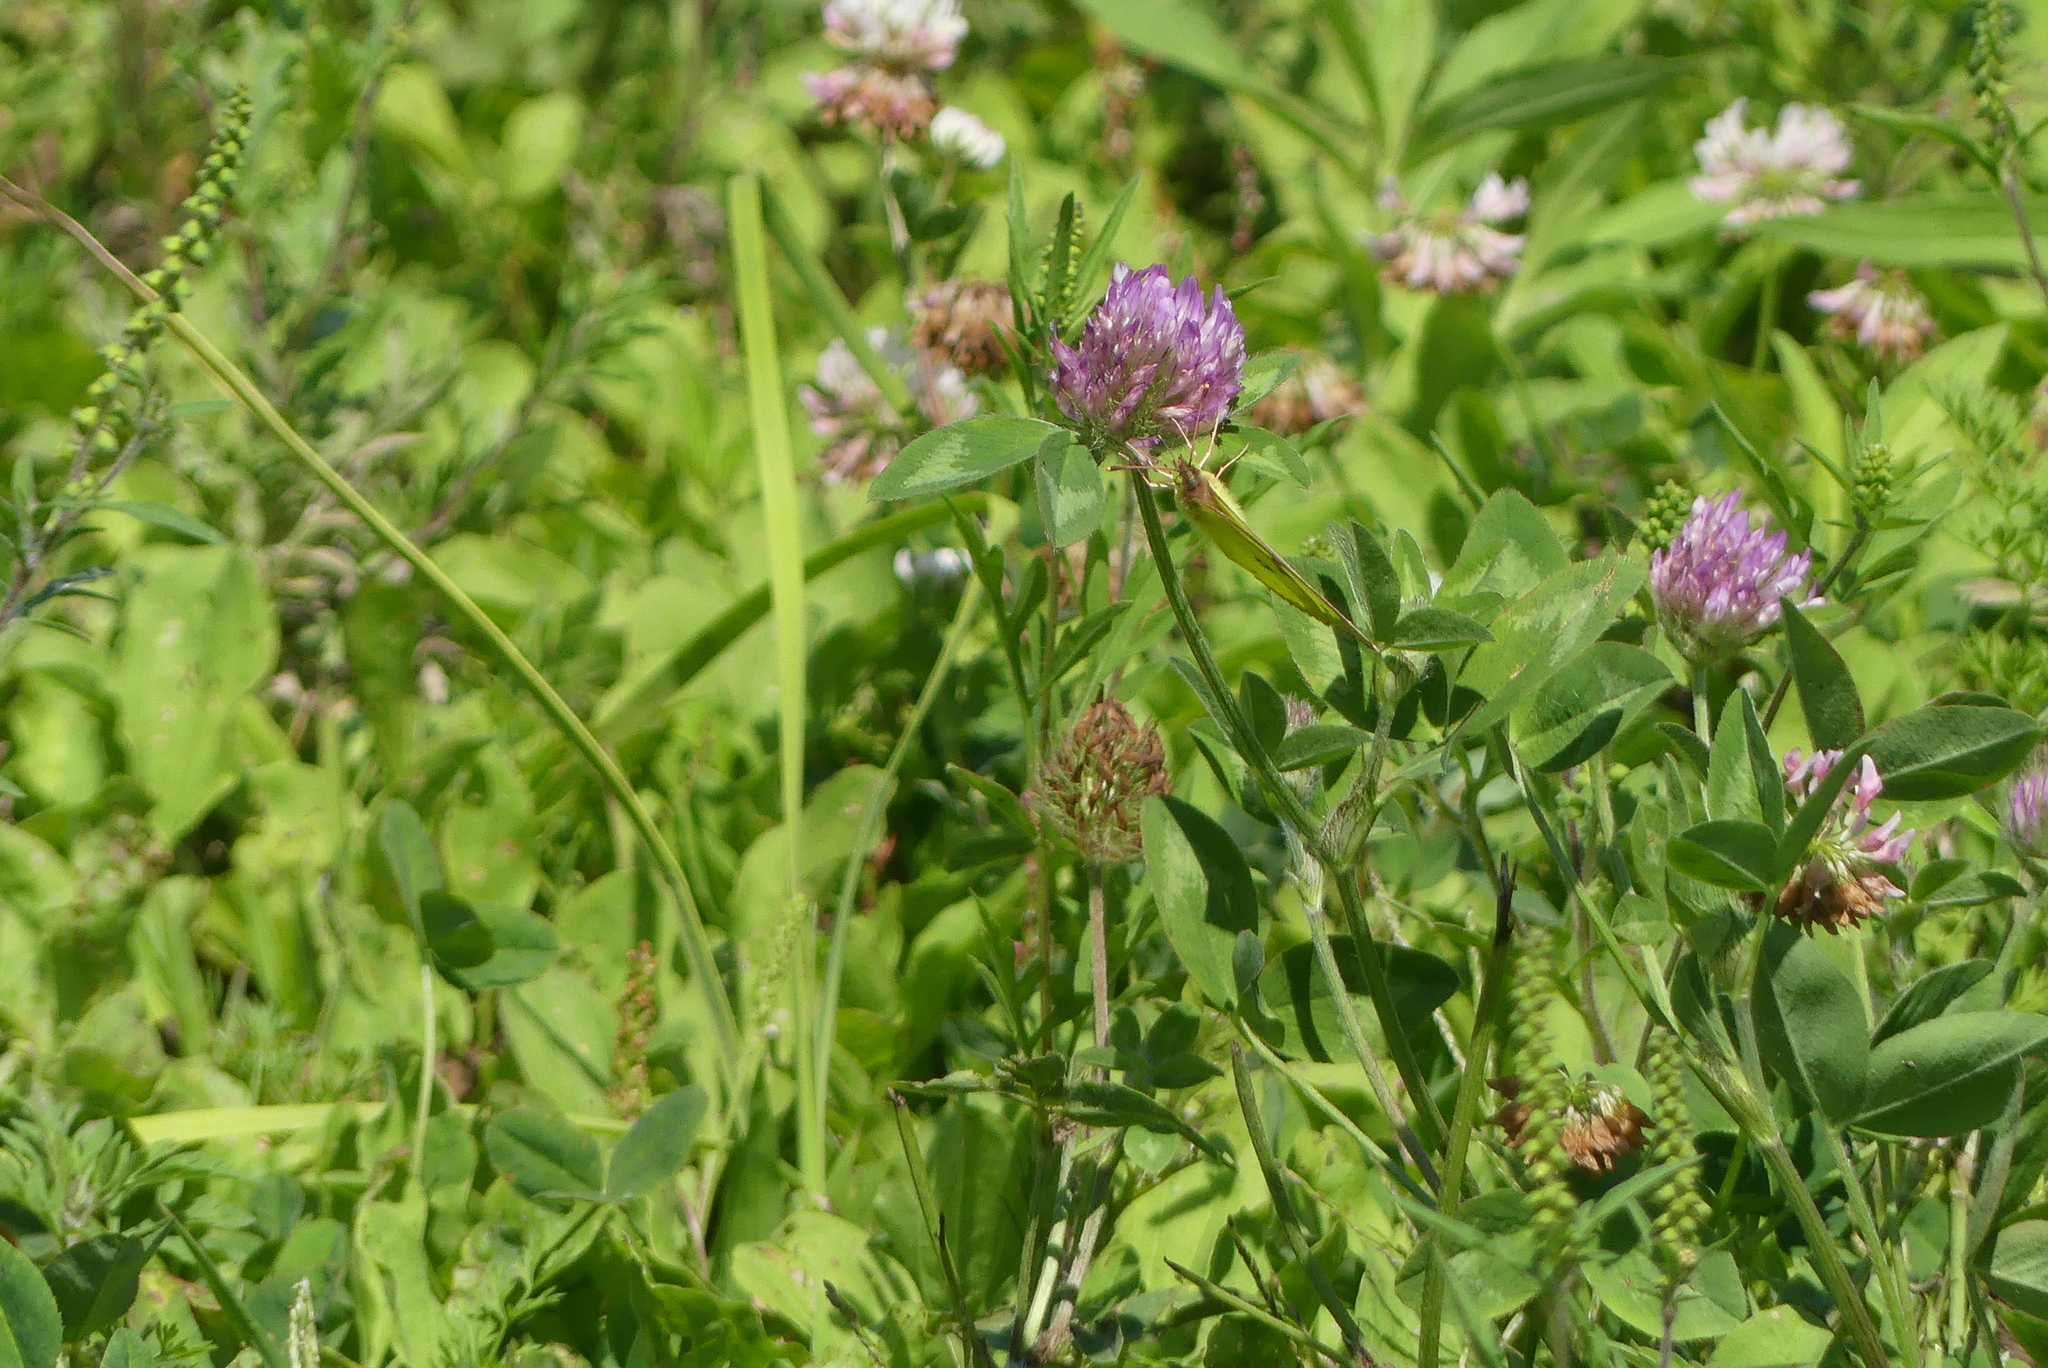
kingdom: Animalia
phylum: Arthropoda
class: Insecta
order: Lepidoptera
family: Pieridae
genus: Colias
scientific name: Colias philodice
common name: Clouded sulphur
